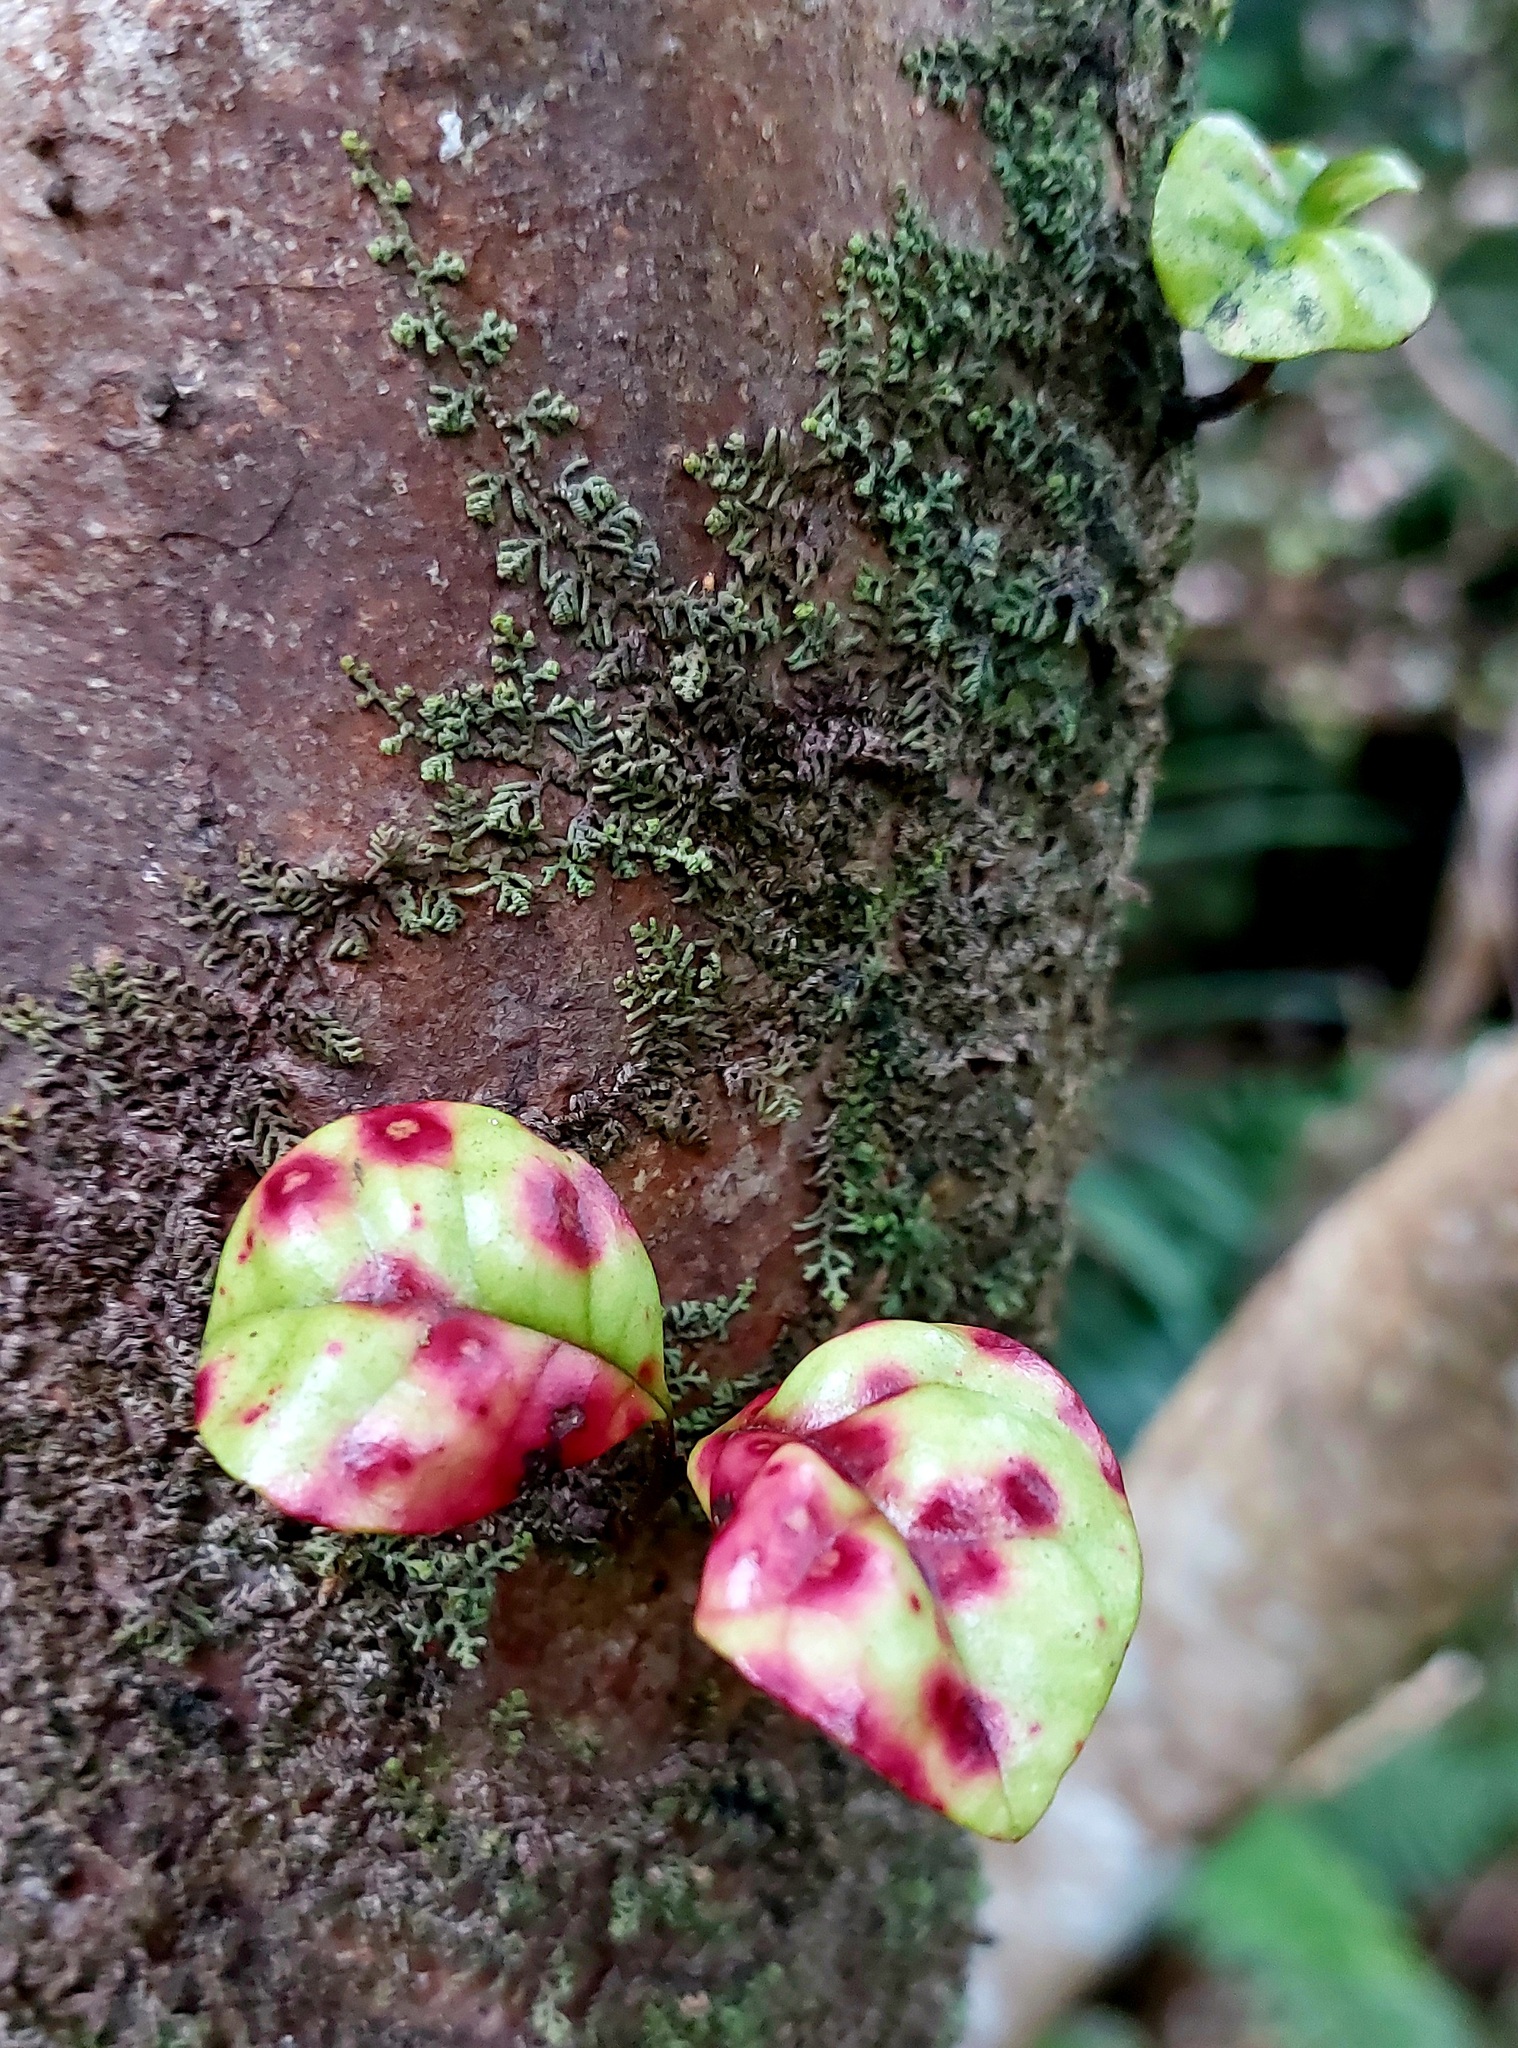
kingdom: Fungi
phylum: Basidiomycota
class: Pucciniomycetes
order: Pucciniales
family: Sphaerophragmiaceae
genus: Austropuccinia
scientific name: Austropuccinia psidii
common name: Myrtle rust
